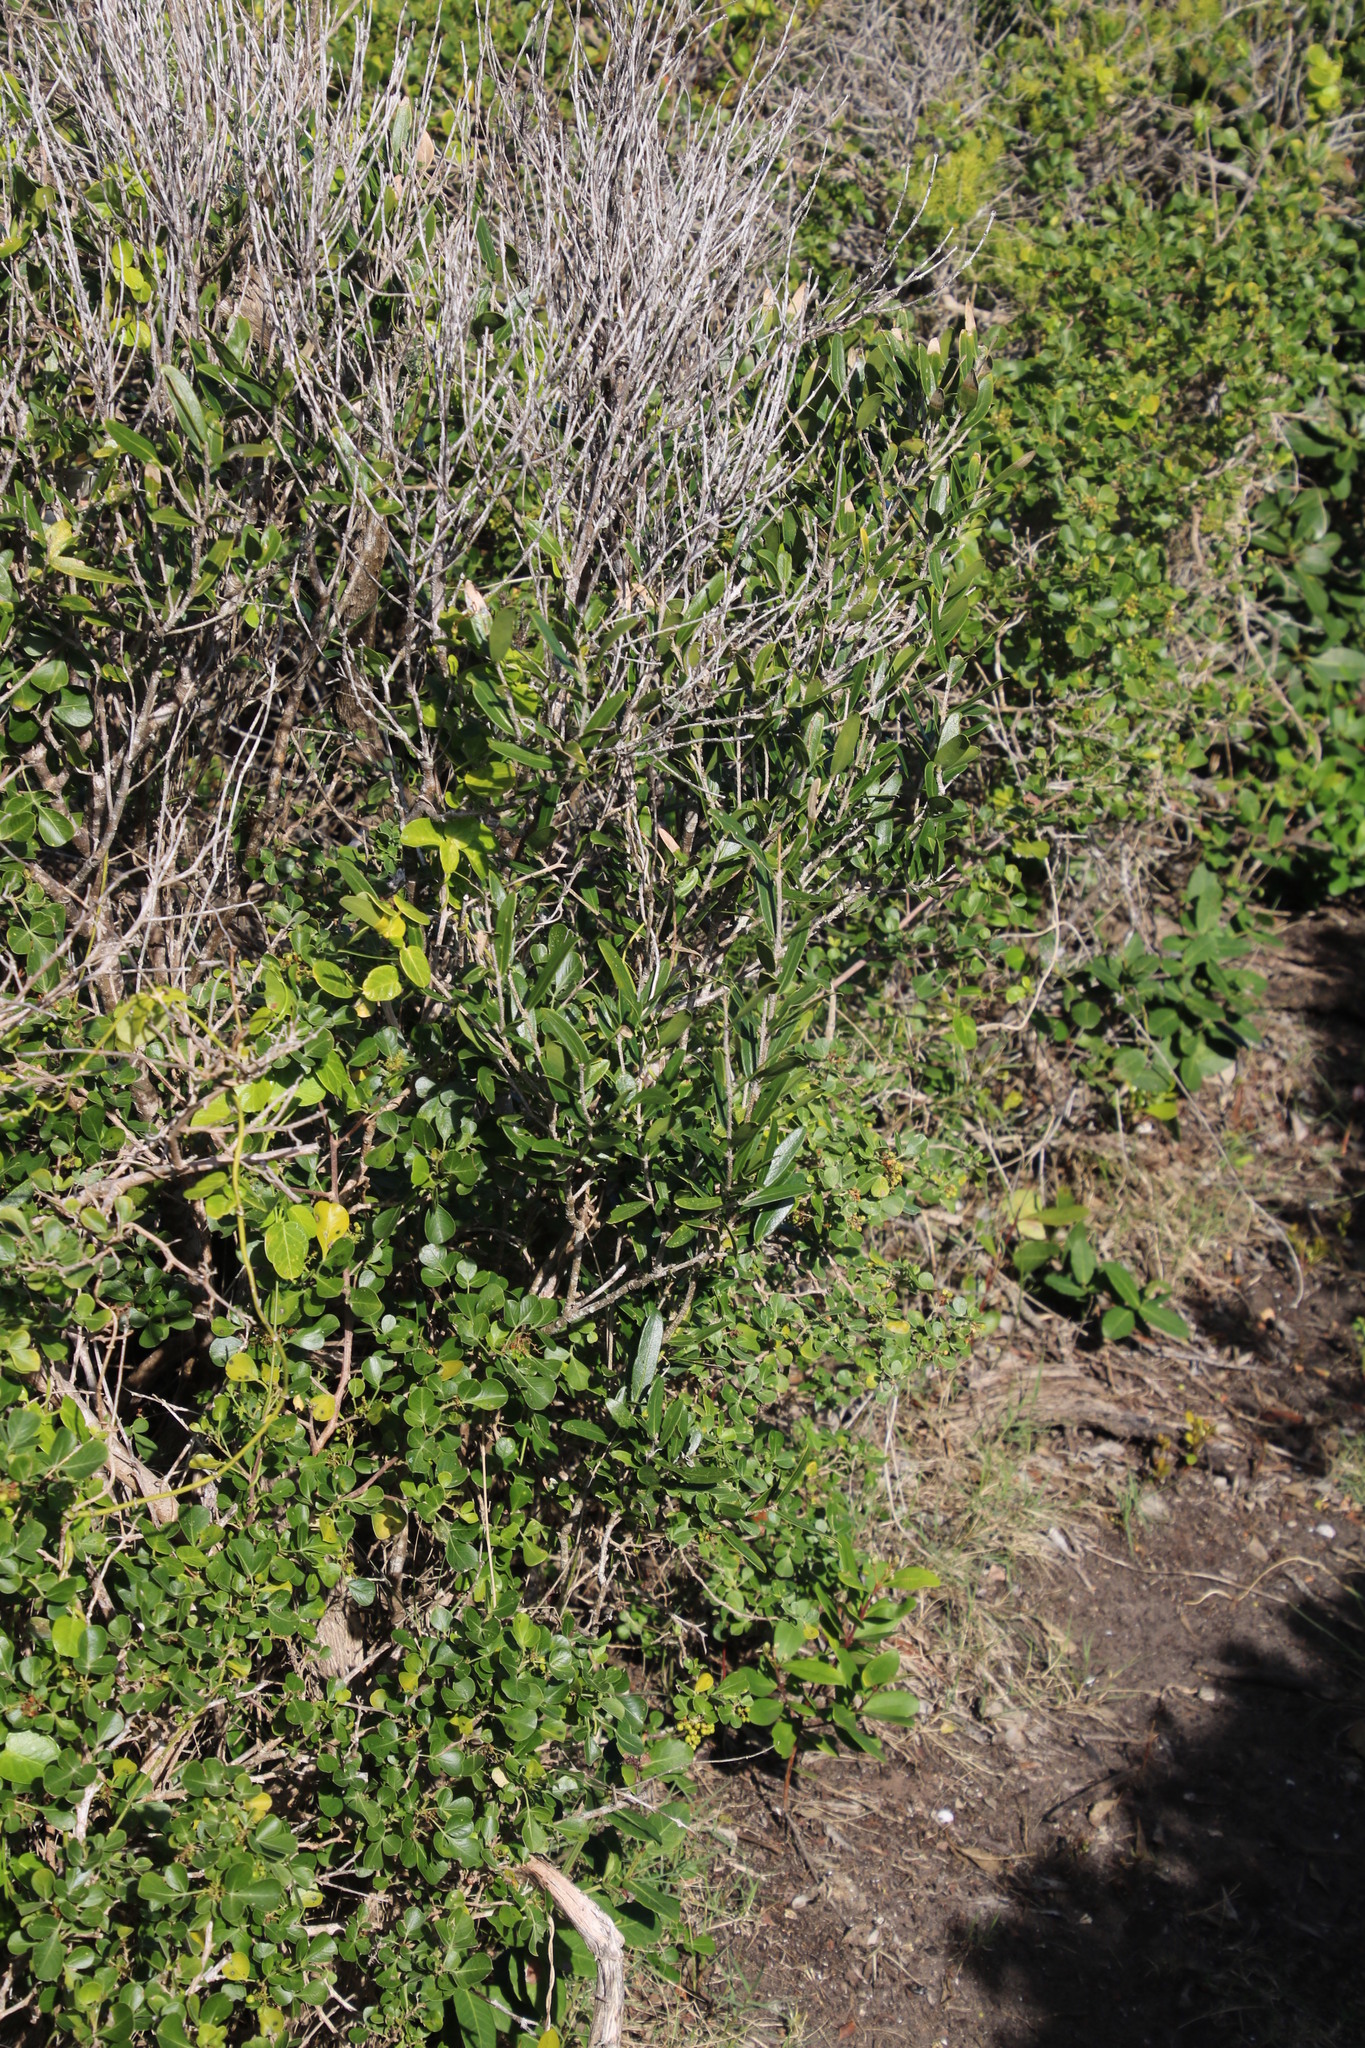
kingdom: Plantae
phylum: Tracheophyta
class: Magnoliopsida
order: Lamiales
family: Oleaceae
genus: Olea
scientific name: Olea exasperata
